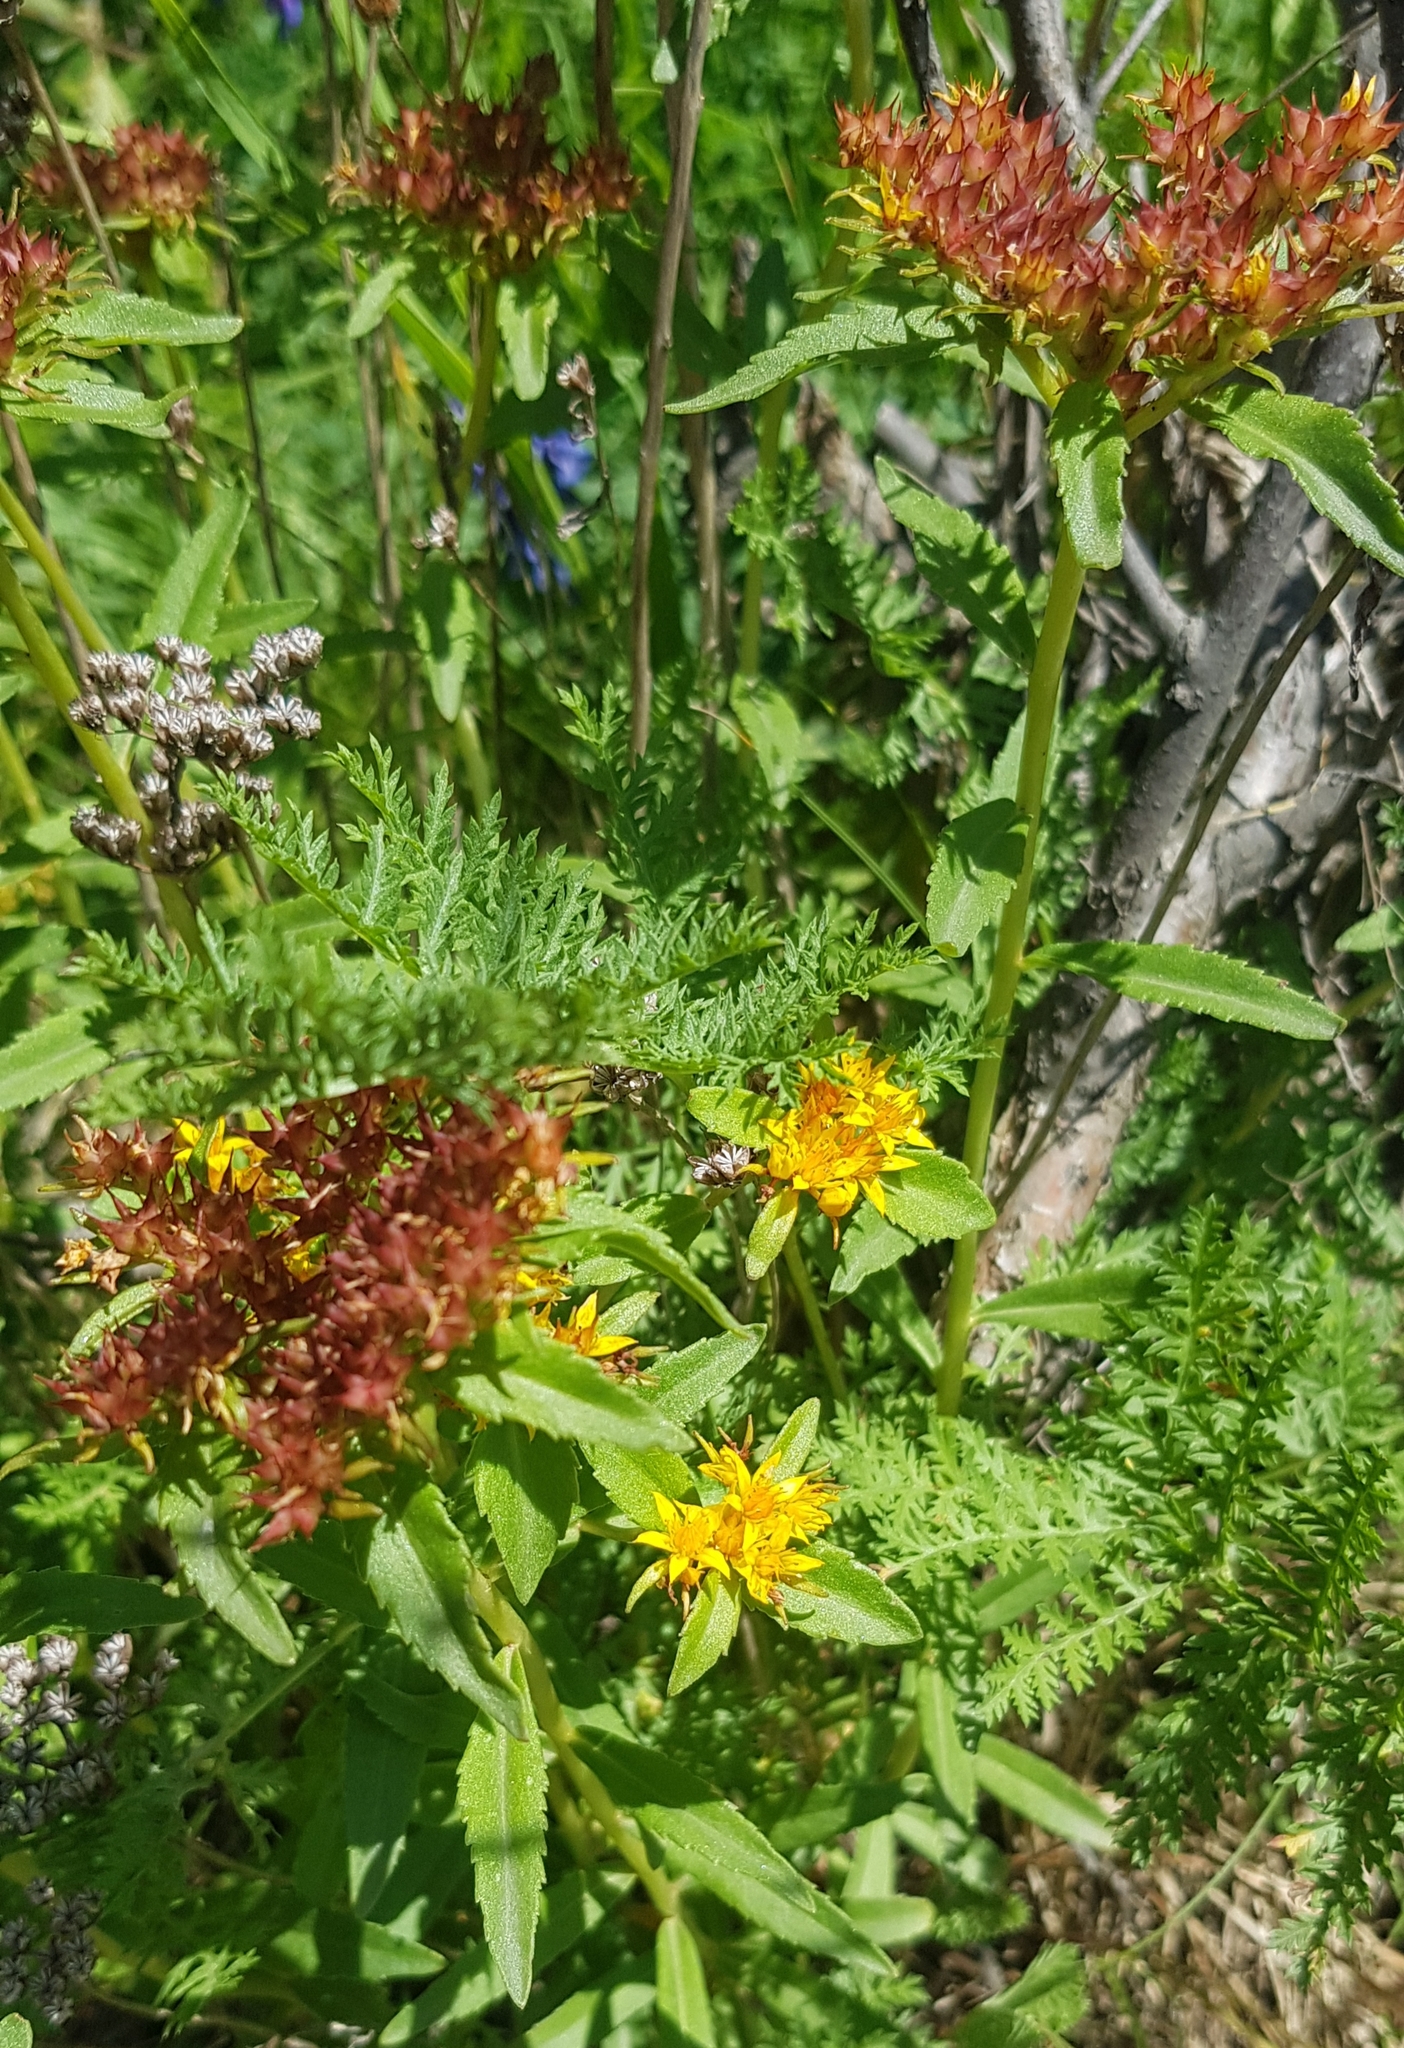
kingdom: Plantae
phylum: Tracheophyta
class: Magnoliopsida
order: Saxifragales
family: Crassulaceae
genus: Phedimus
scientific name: Phedimus aizoon
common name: Orpin aizoon
